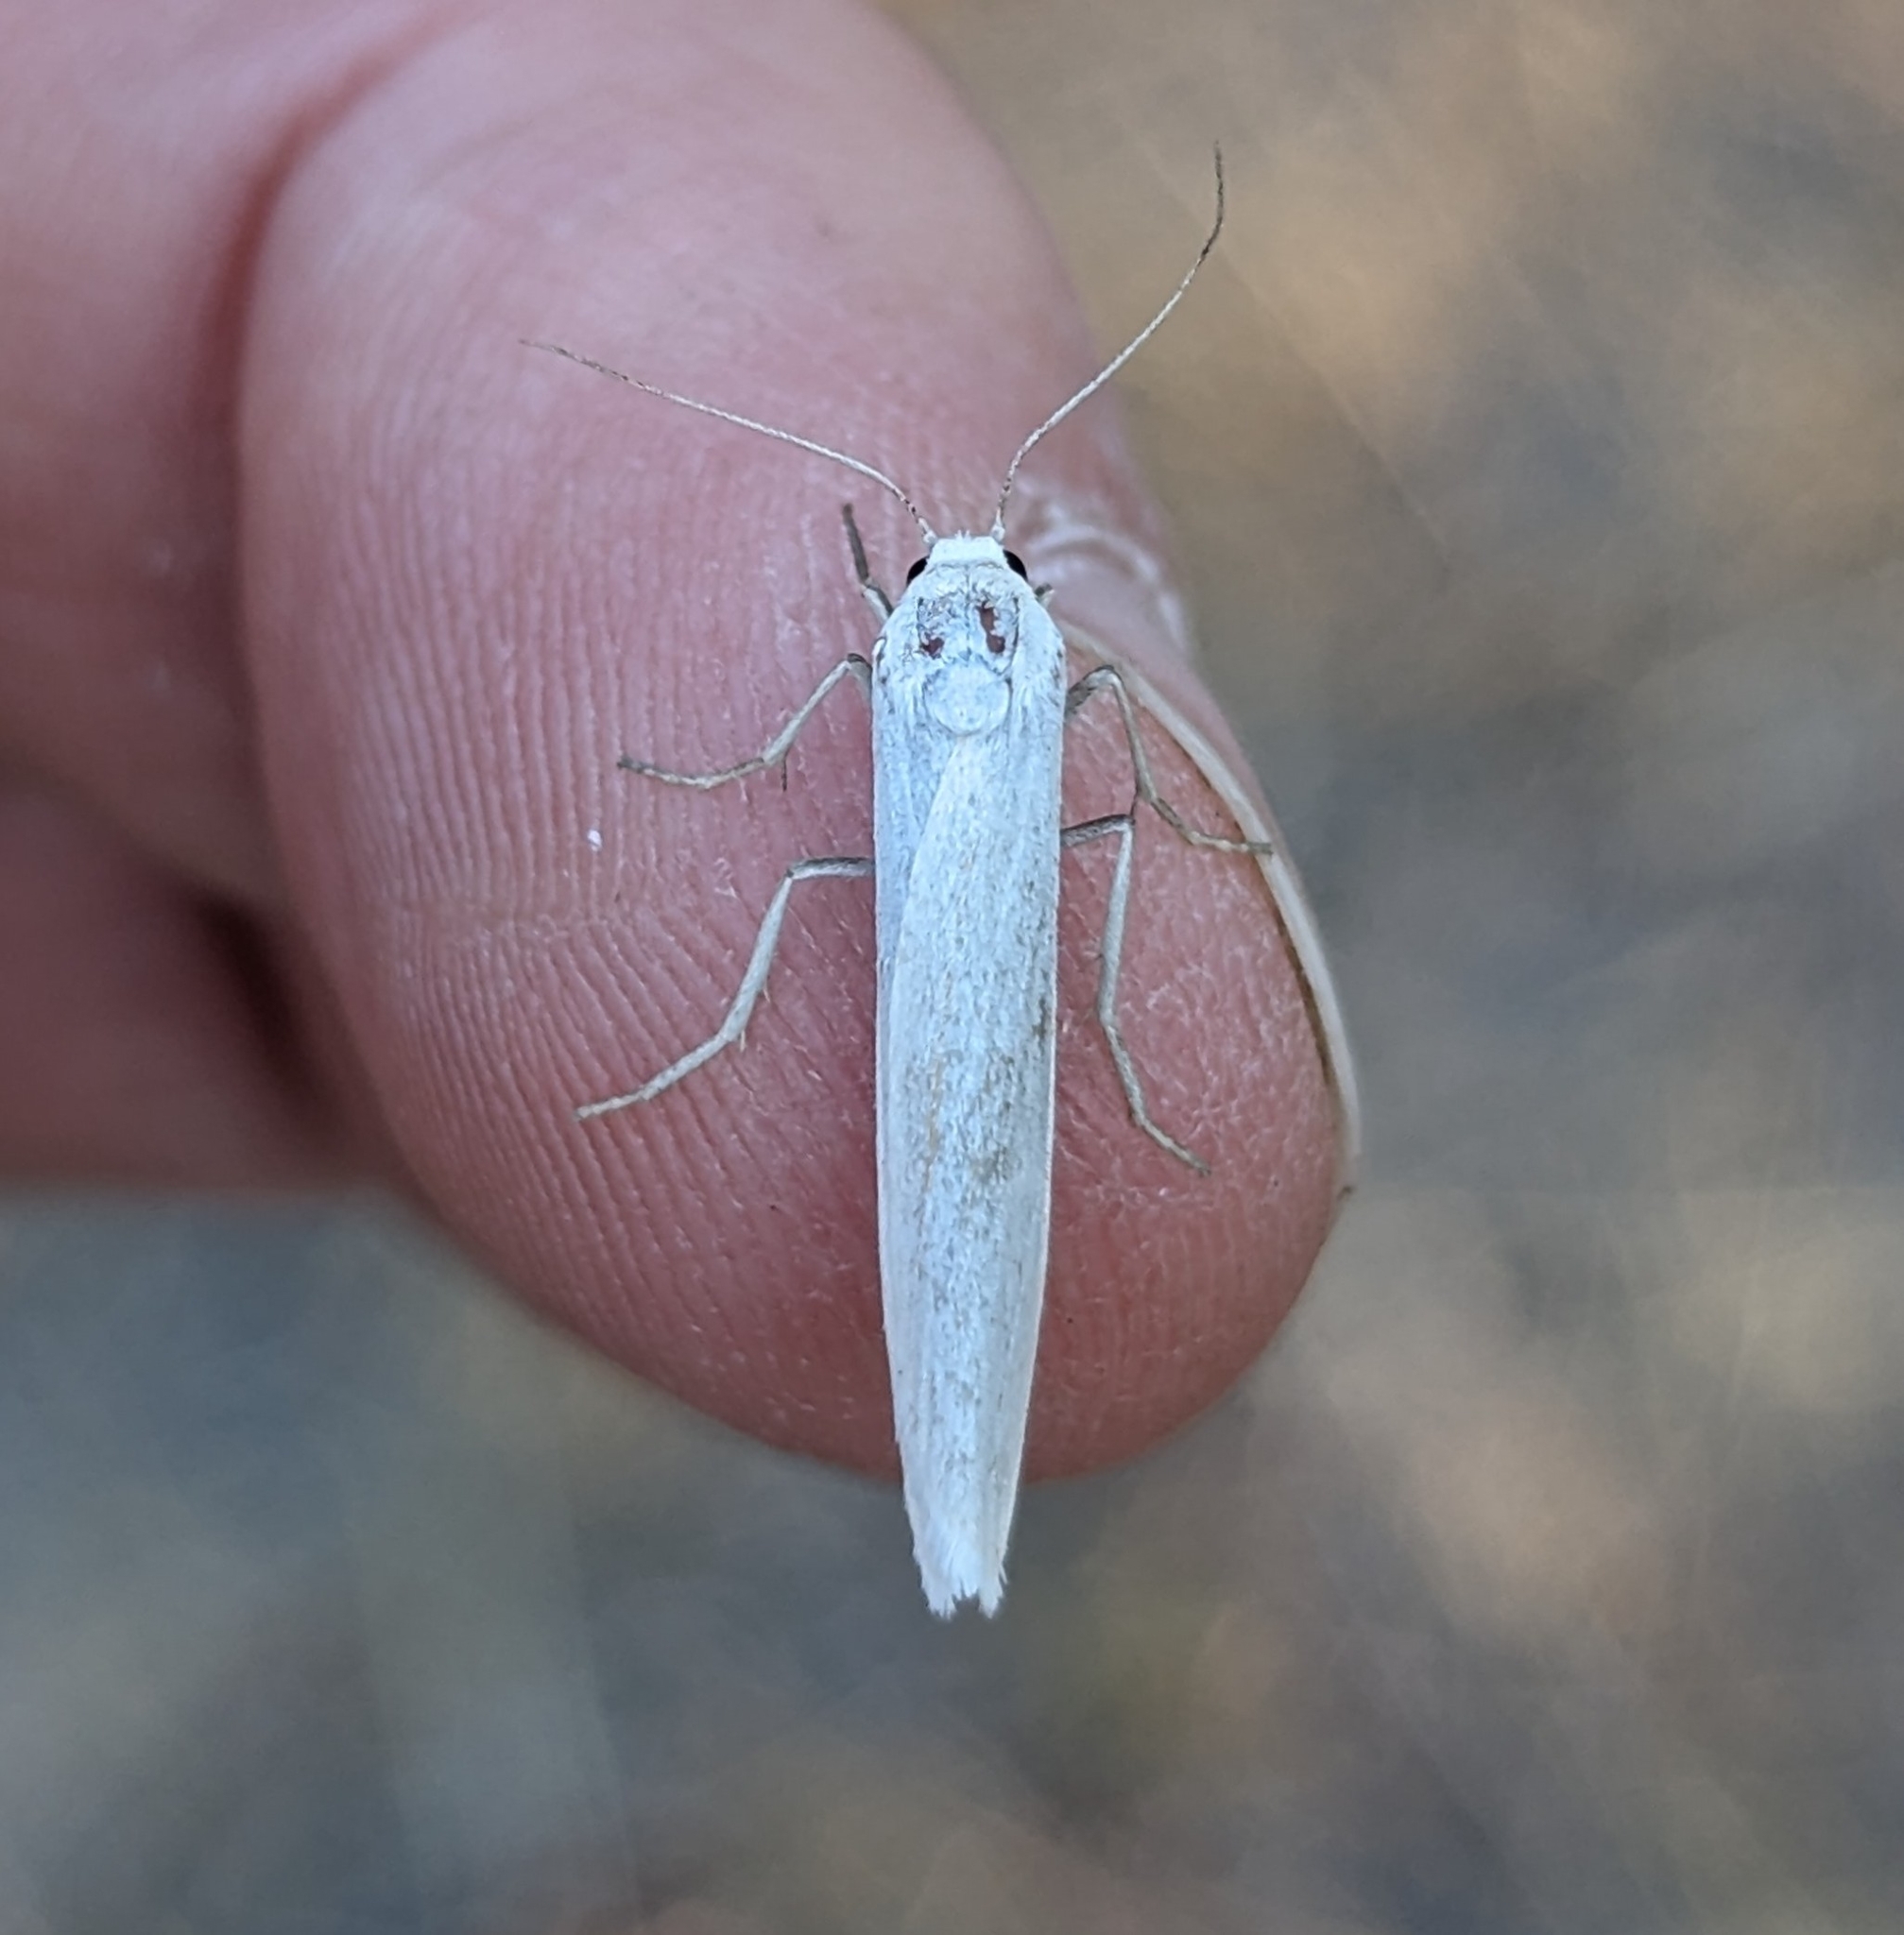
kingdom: Animalia
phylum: Arthropoda
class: Insecta
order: Lepidoptera
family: Erebidae
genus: Crambidia
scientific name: Crambidia casta
